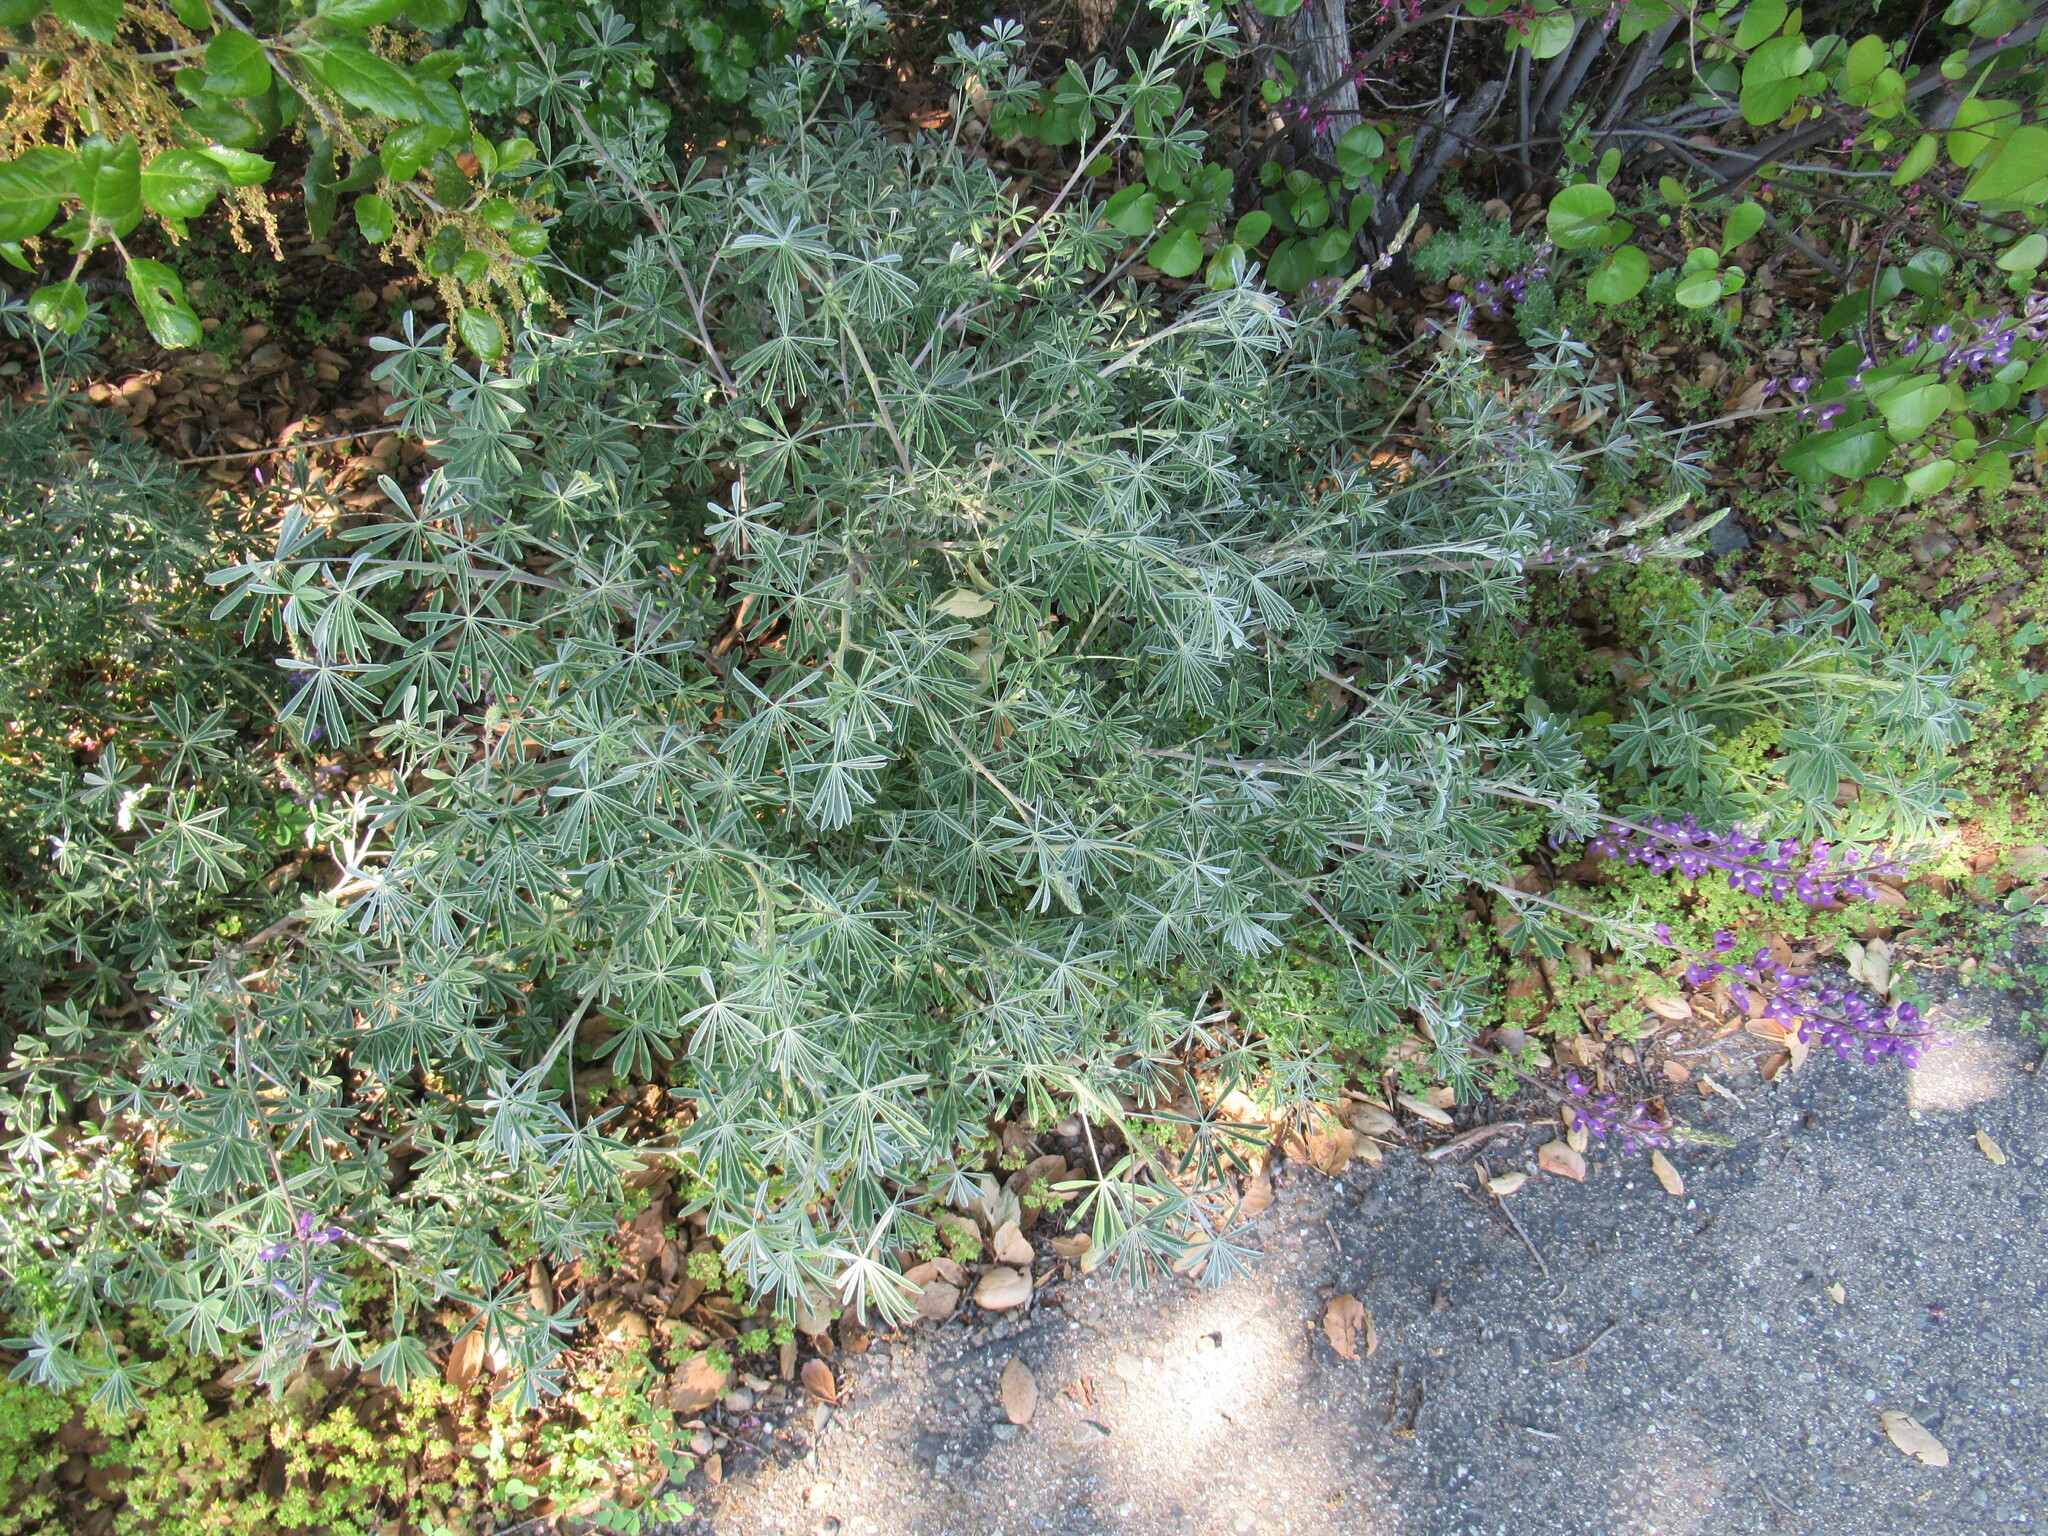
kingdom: Plantae
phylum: Tracheophyta
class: Magnoliopsida
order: Fabales
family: Fabaceae
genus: Lupinus
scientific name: Lupinus albifrons
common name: Foothill lupine
